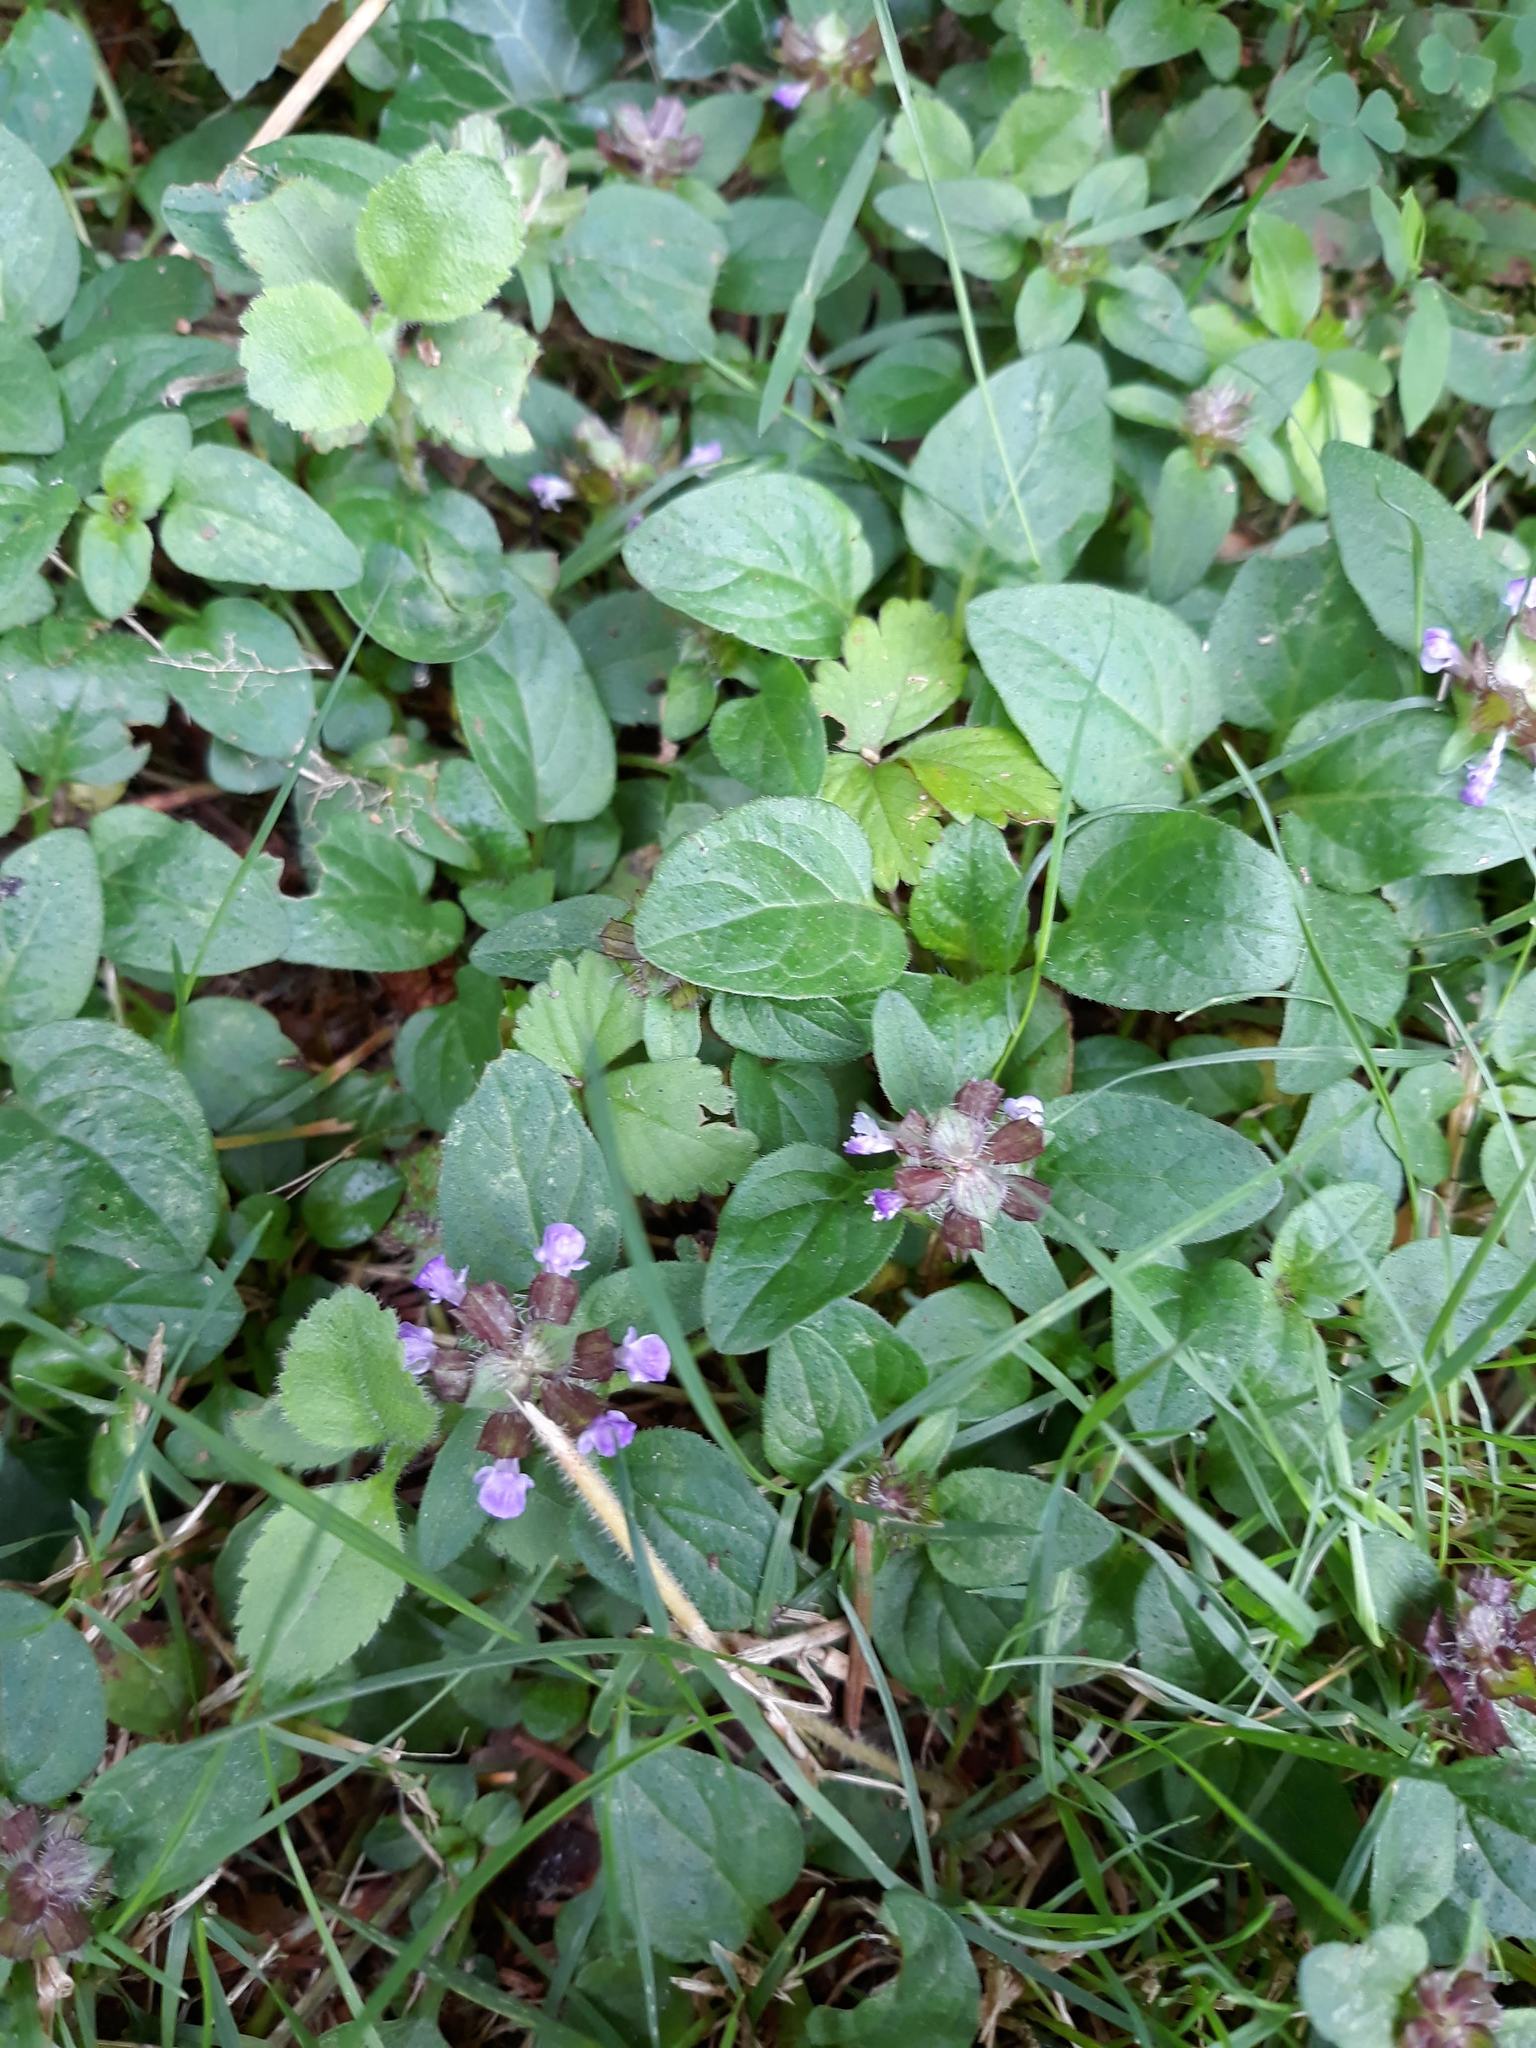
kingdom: Plantae
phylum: Tracheophyta
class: Magnoliopsida
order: Lamiales
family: Lamiaceae
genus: Prunella
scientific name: Prunella vulgaris
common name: Heal-all
